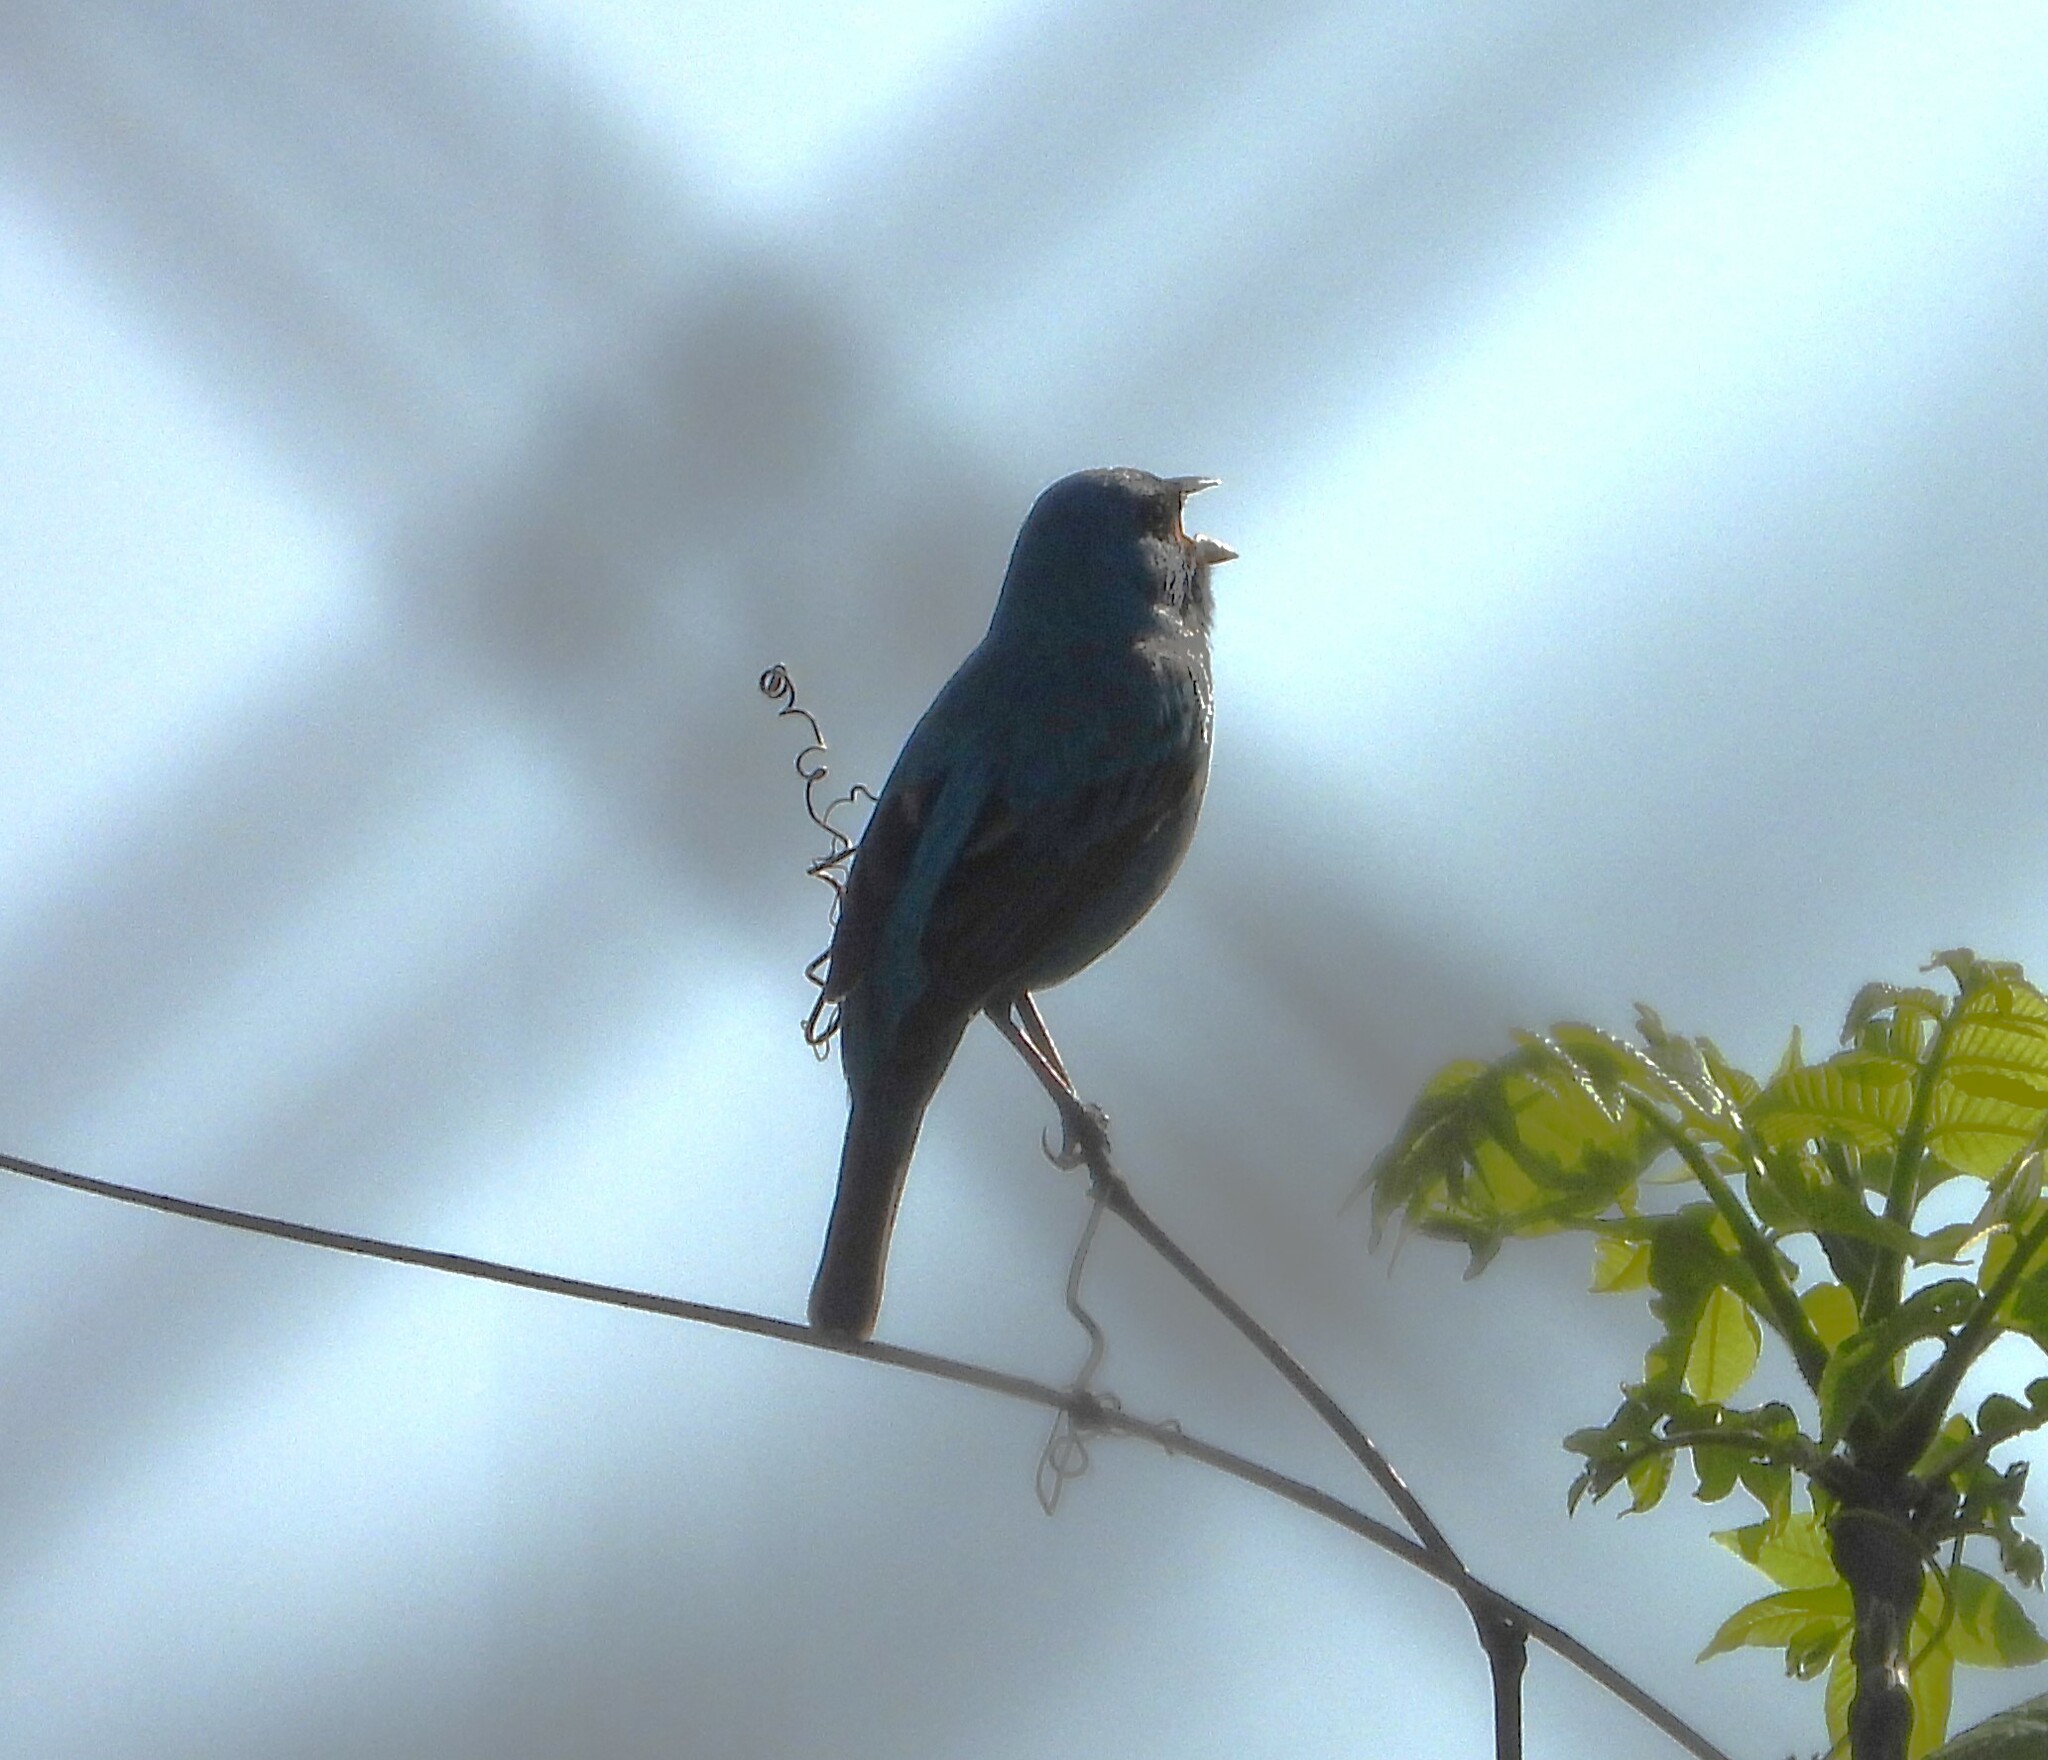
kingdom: Animalia
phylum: Chordata
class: Aves
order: Passeriformes
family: Cardinalidae
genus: Passerina
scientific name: Passerina cyanea
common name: Indigo bunting
